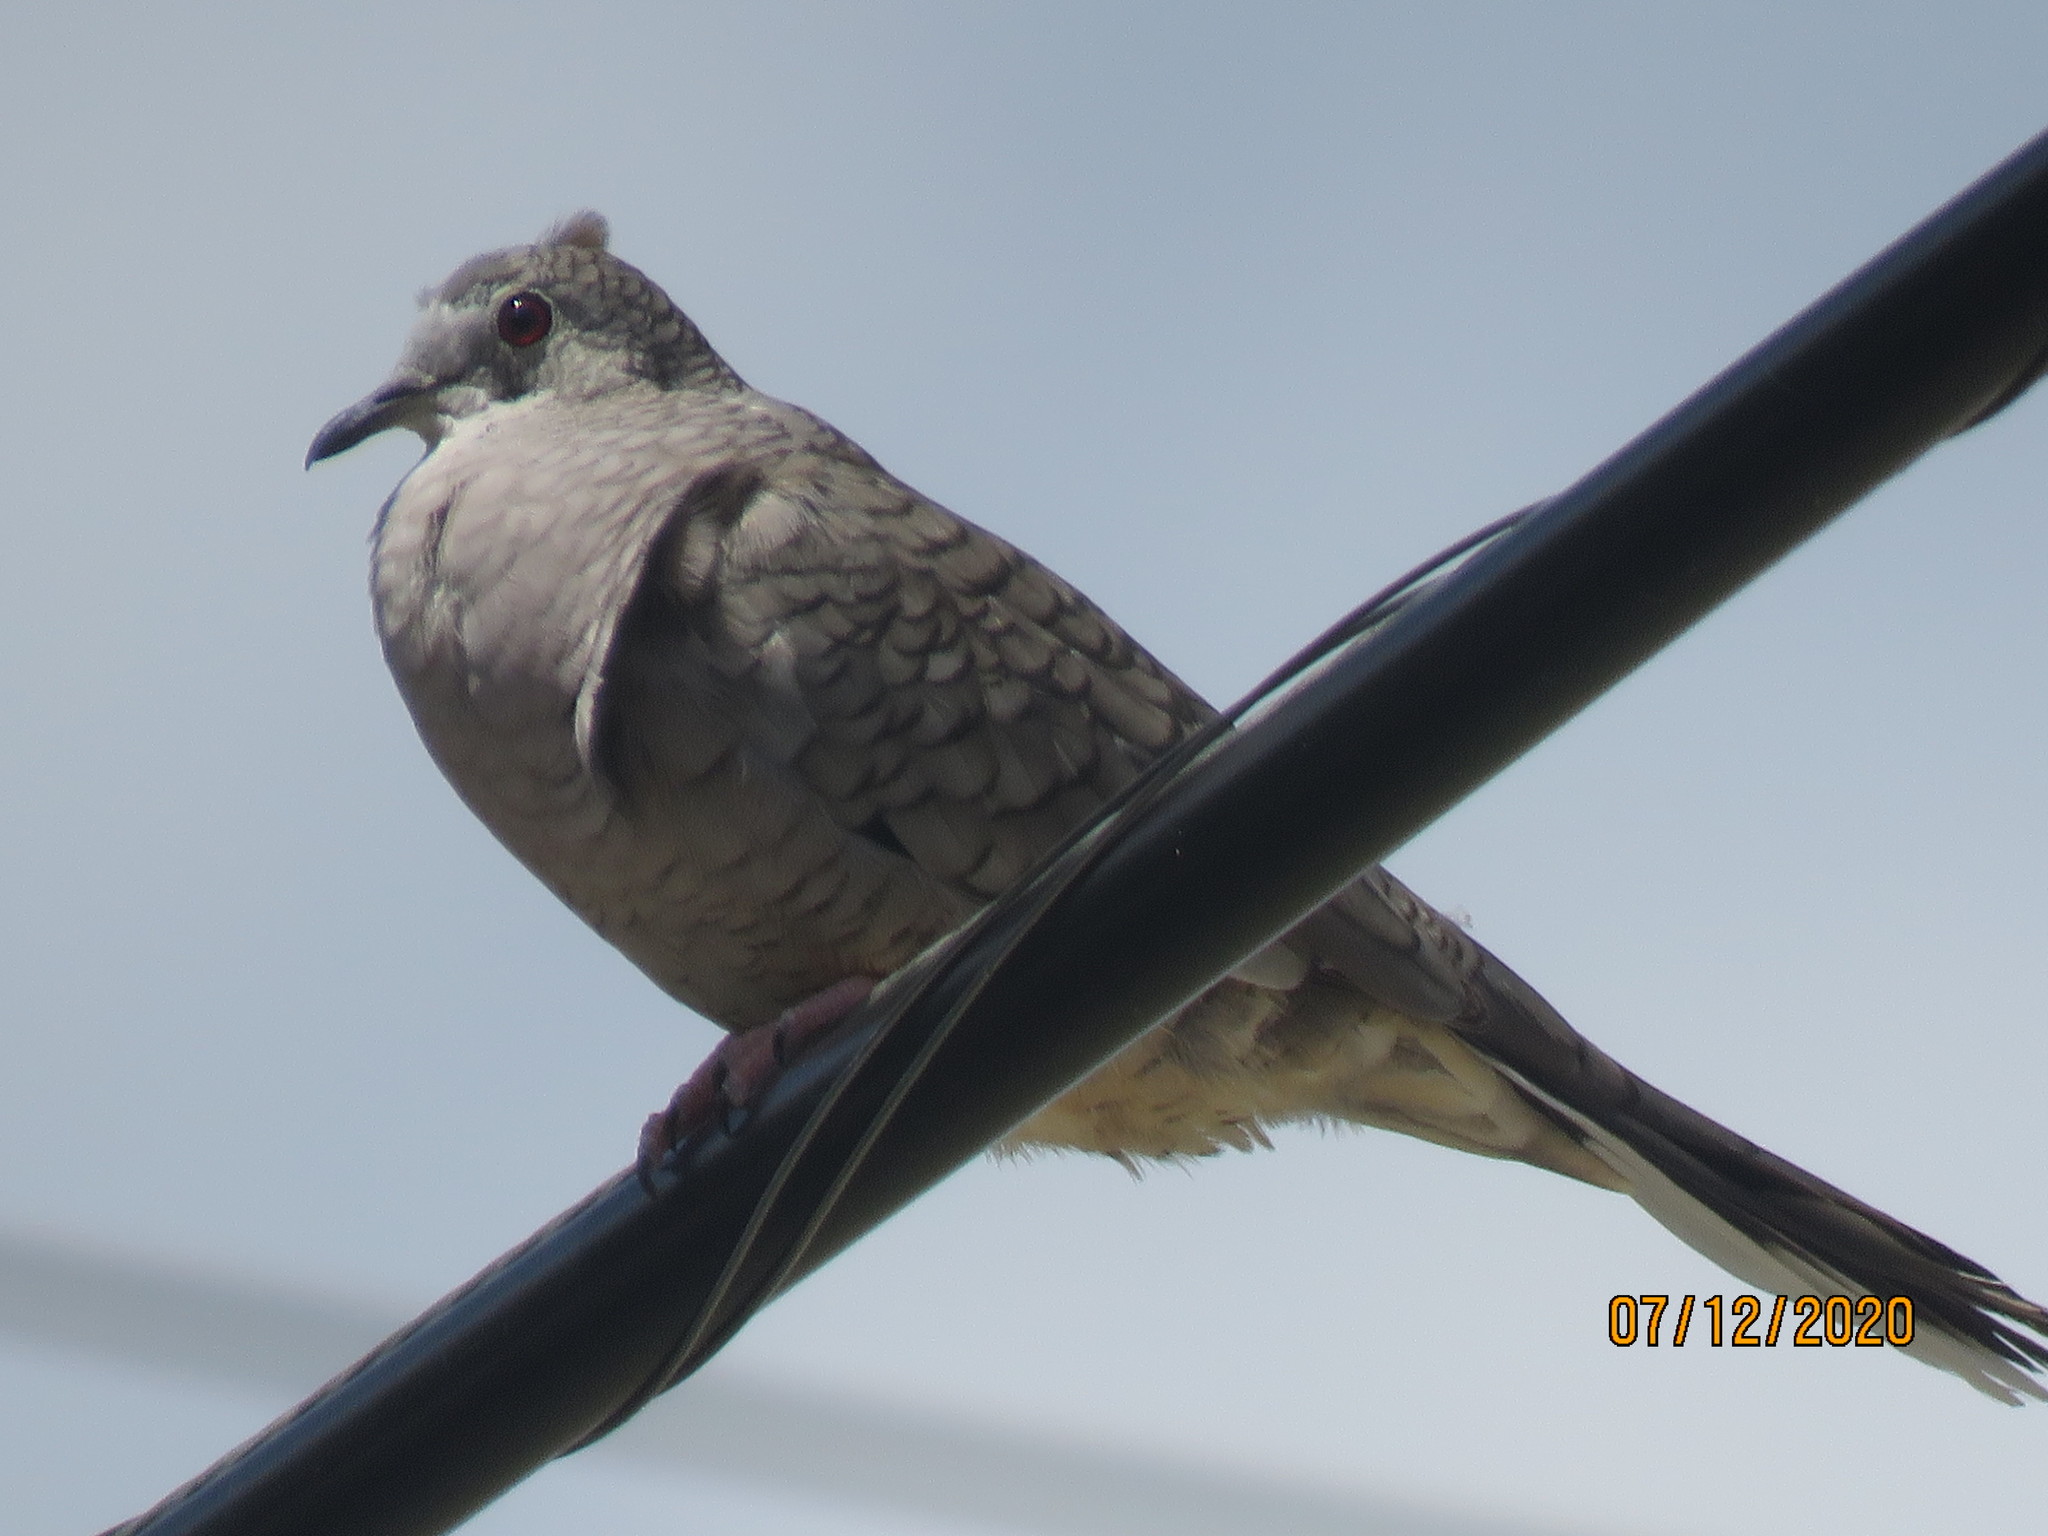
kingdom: Animalia
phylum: Chordata
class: Aves
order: Columbiformes
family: Columbidae
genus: Columbina
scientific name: Columbina inca
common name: Inca dove
